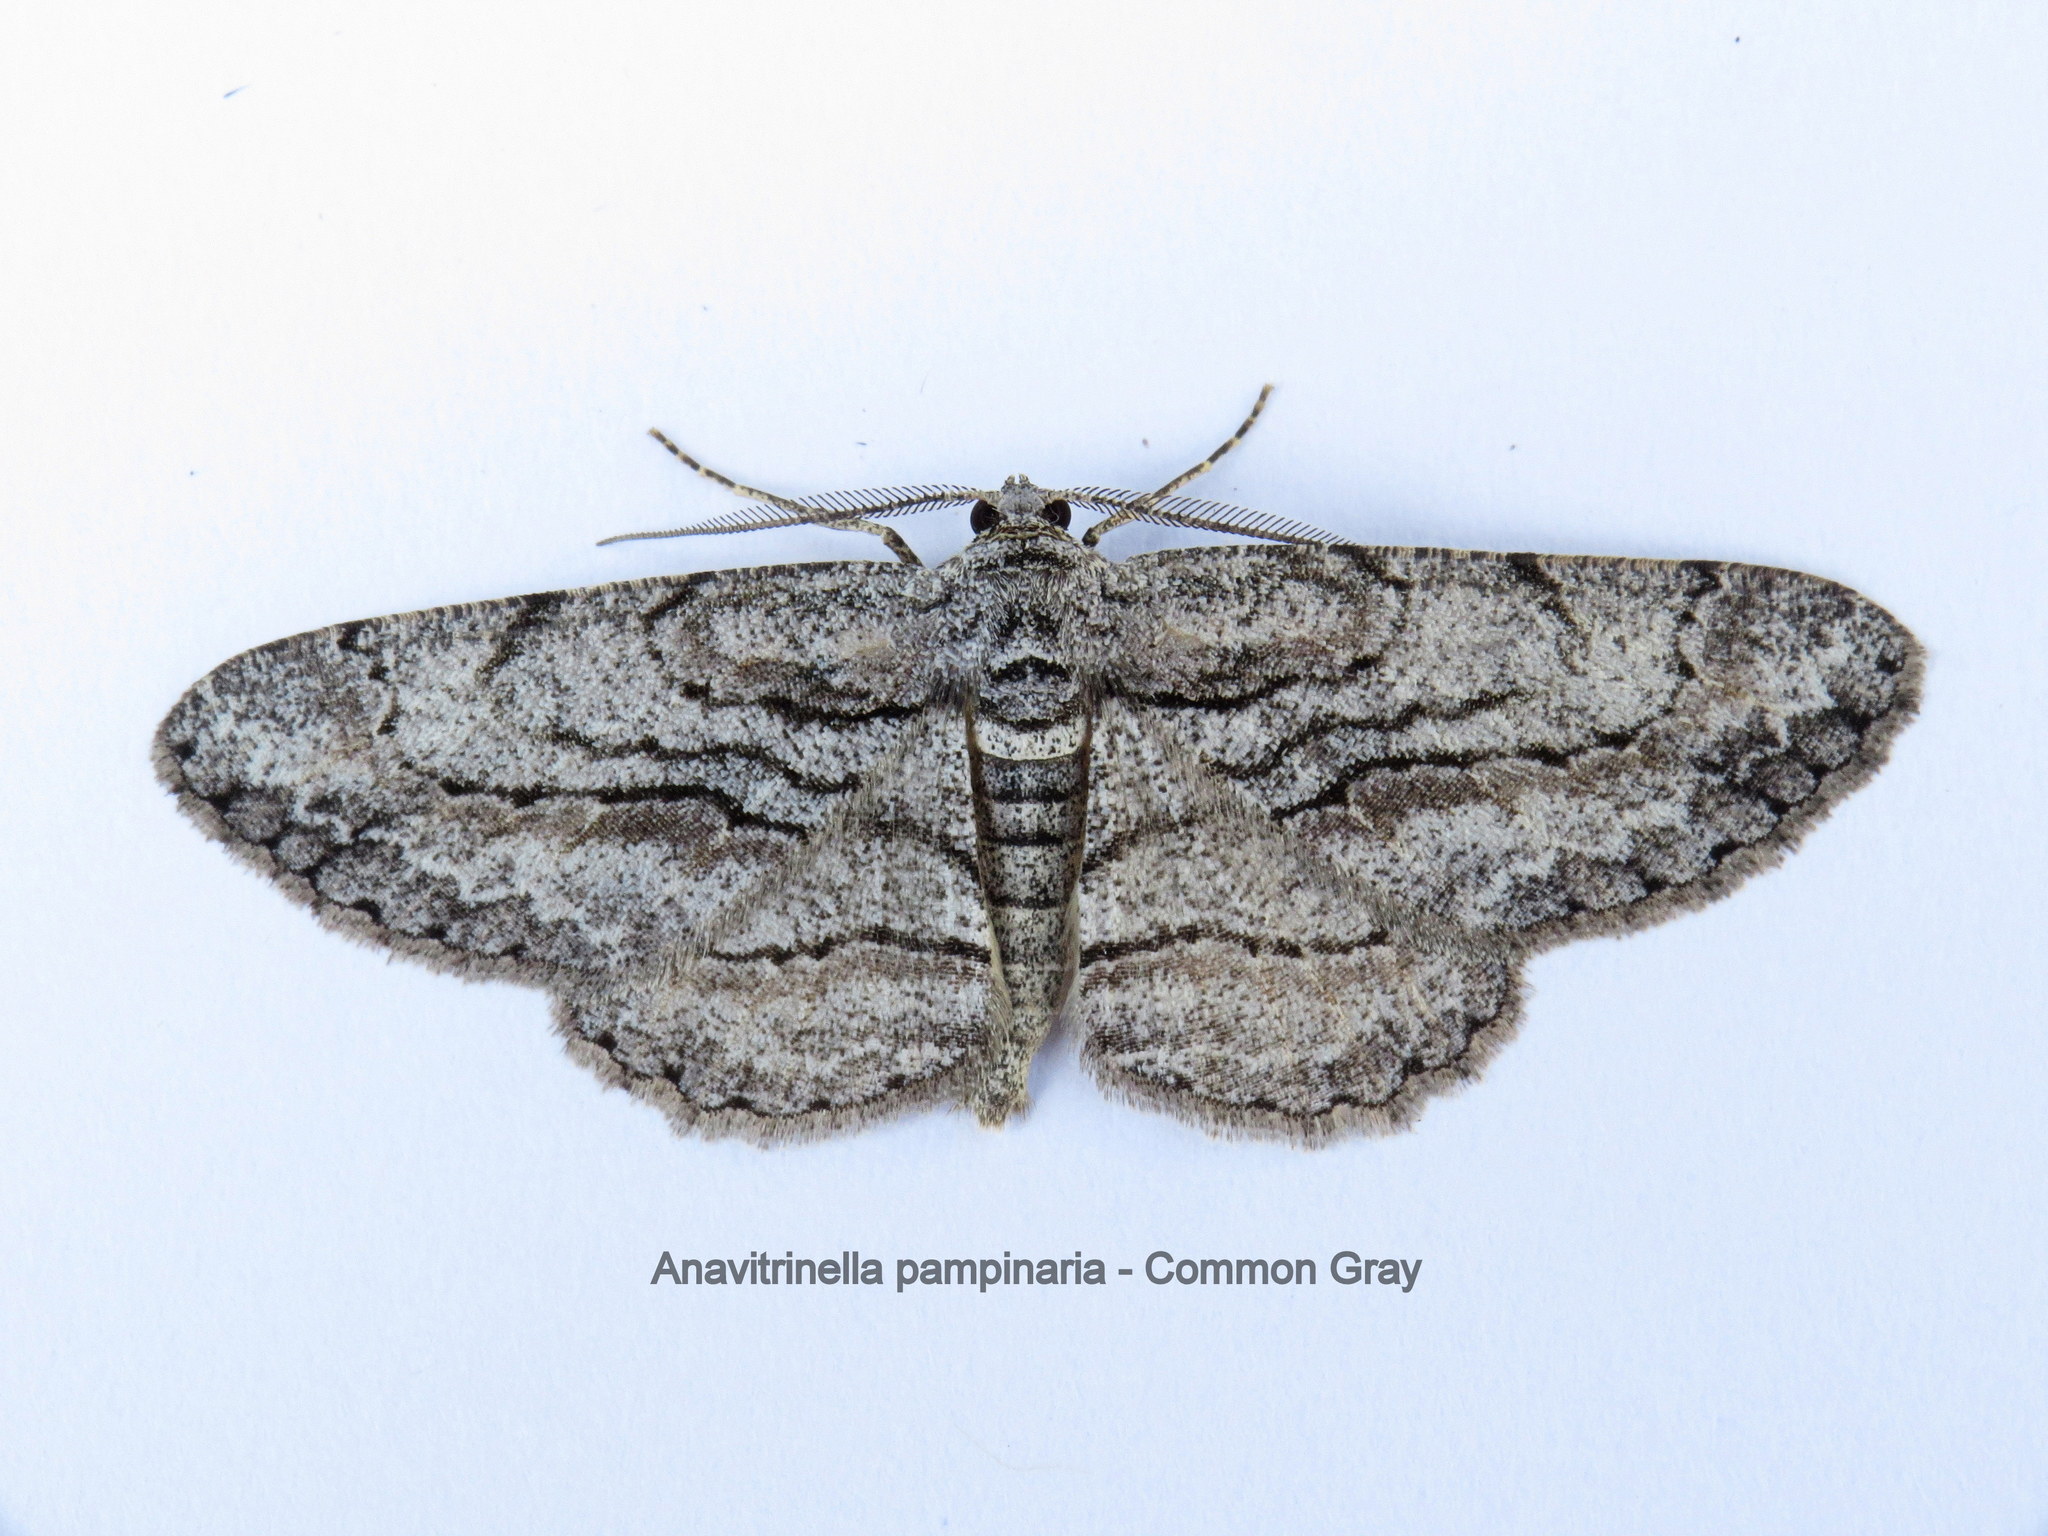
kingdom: Animalia
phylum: Arthropoda
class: Insecta
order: Lepidoptera
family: Geometridae
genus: Anavitrinella
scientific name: Anavitrinella pampinaria
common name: Common gray
